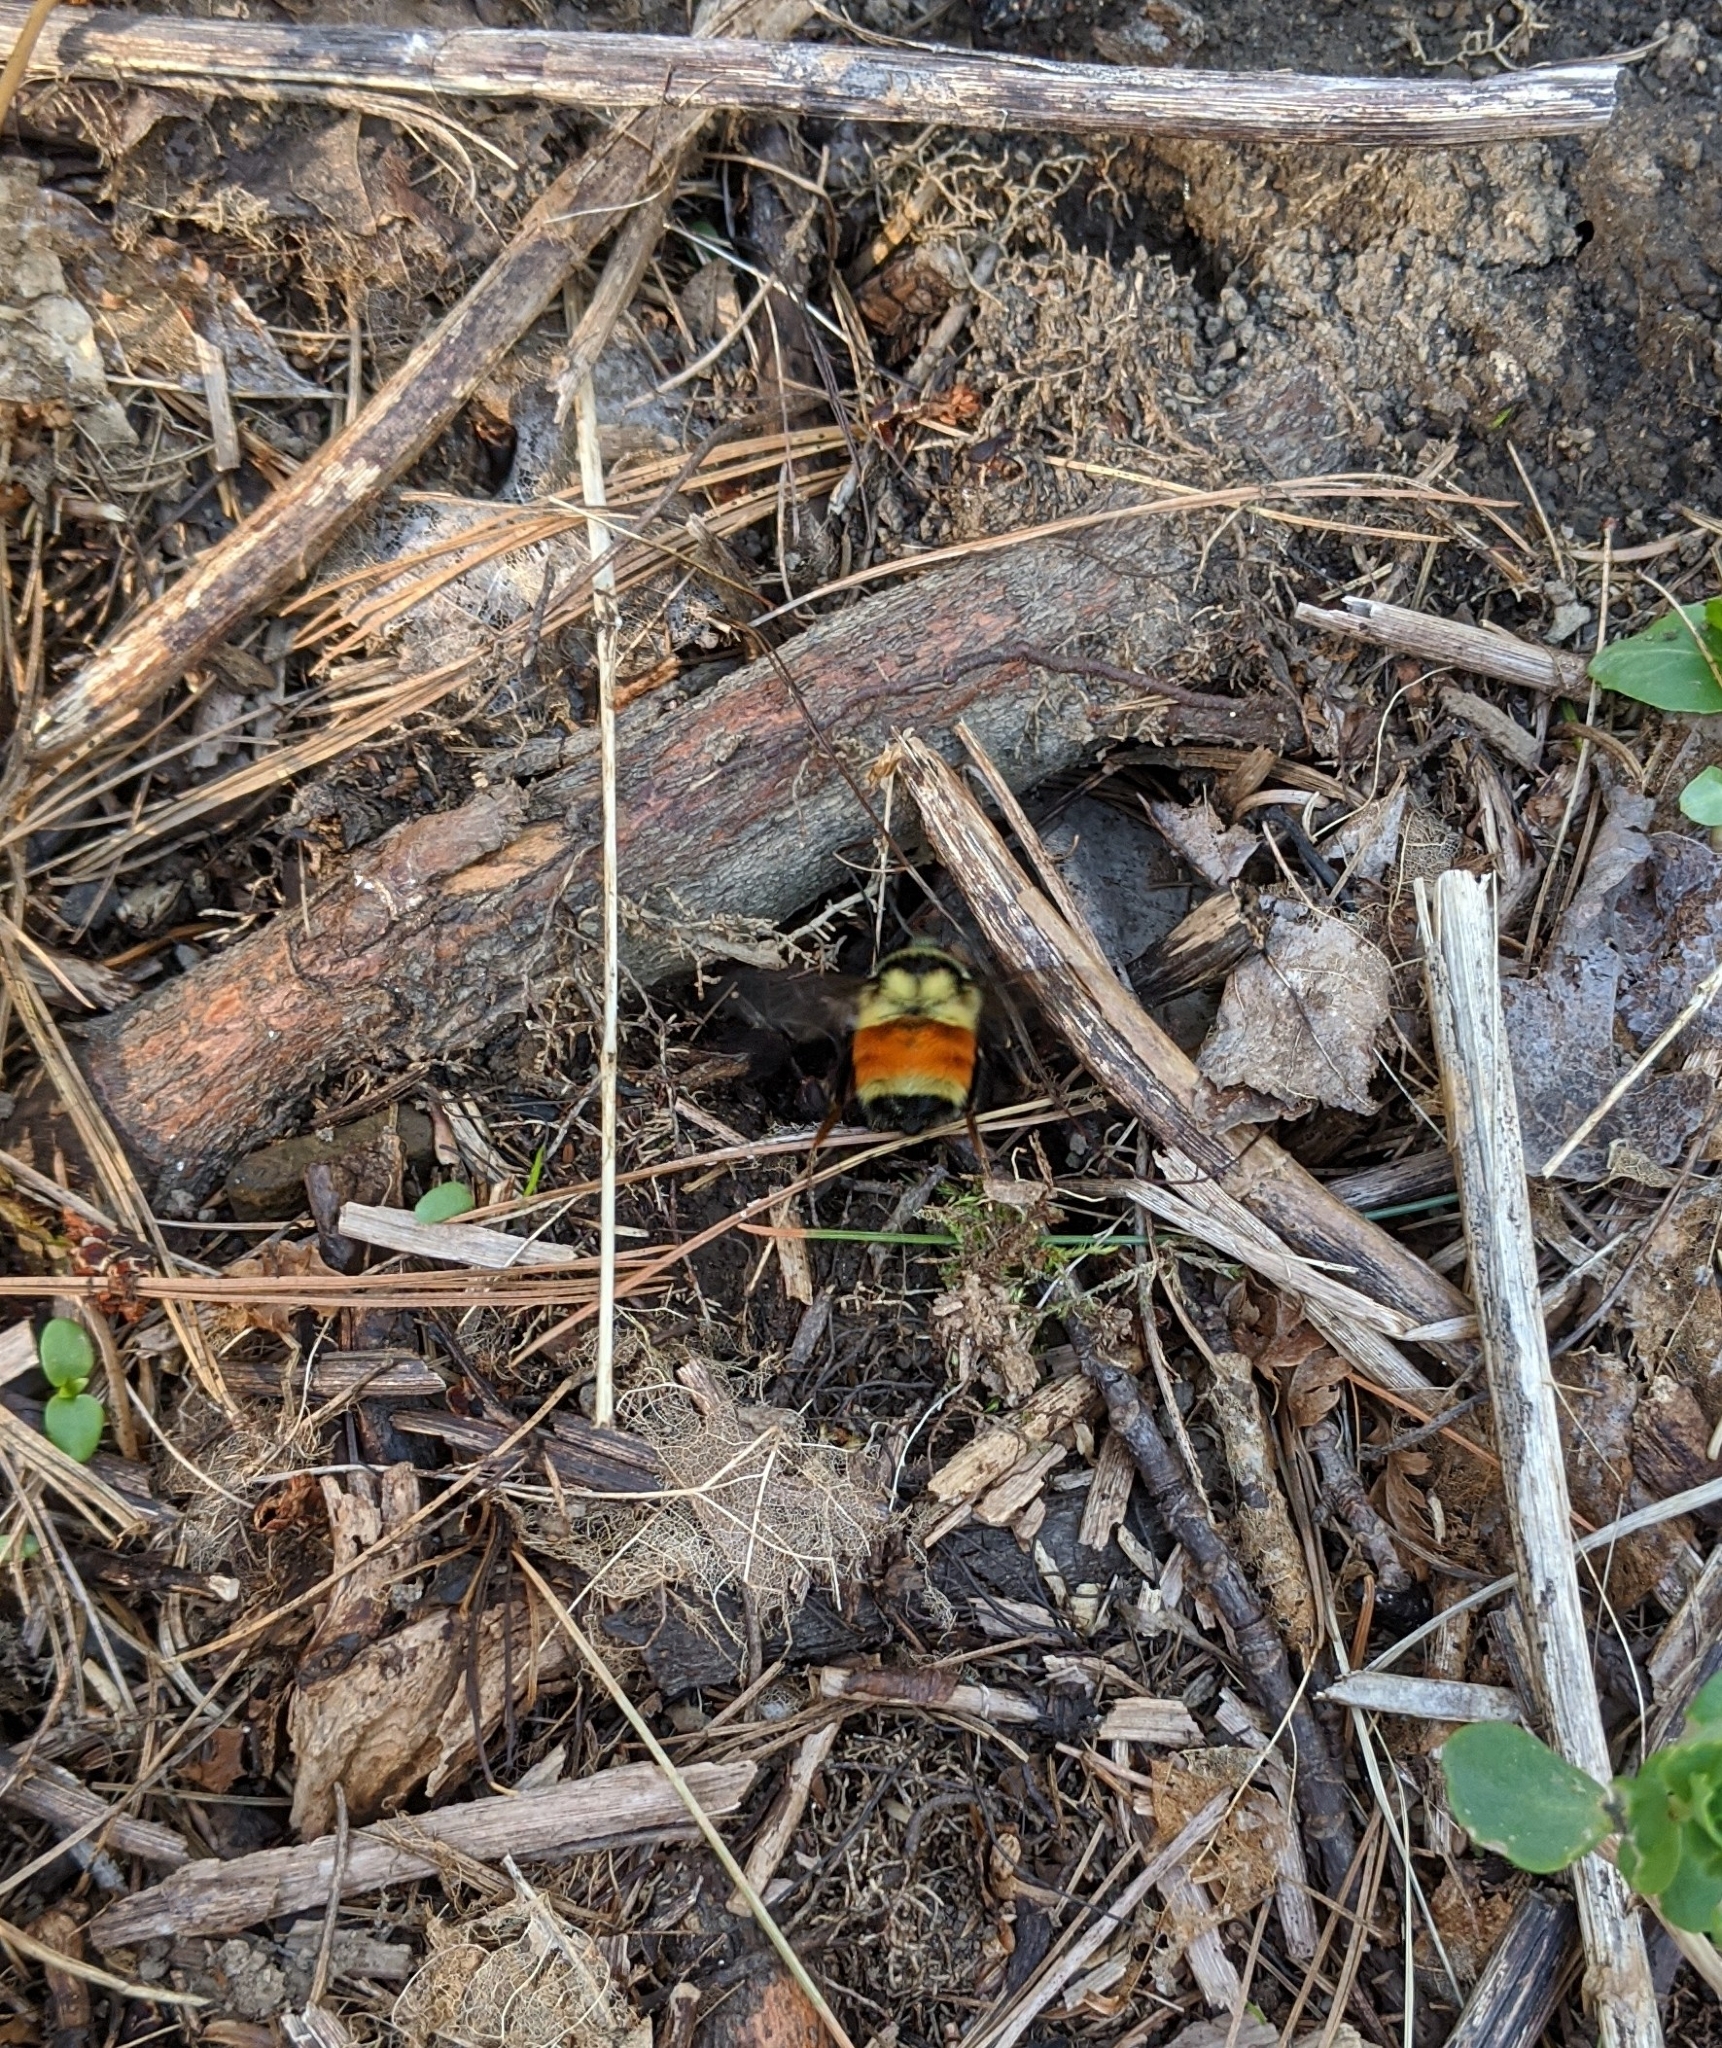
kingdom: Animalia
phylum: Arthropoda
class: Insecta
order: Hymenoptera
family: Apidae
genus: Bombus
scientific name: Bombus ternarius
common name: Tri-colored bumble bee
